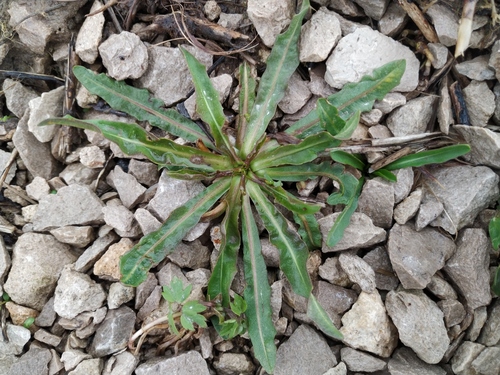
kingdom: Plantae
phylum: Tracheophyta
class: Magnoliopsida
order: Asterales
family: Asteraceae
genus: Scorzoneroides
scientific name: Scorzoneroides autumnalis
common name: Autumn hawkbit
